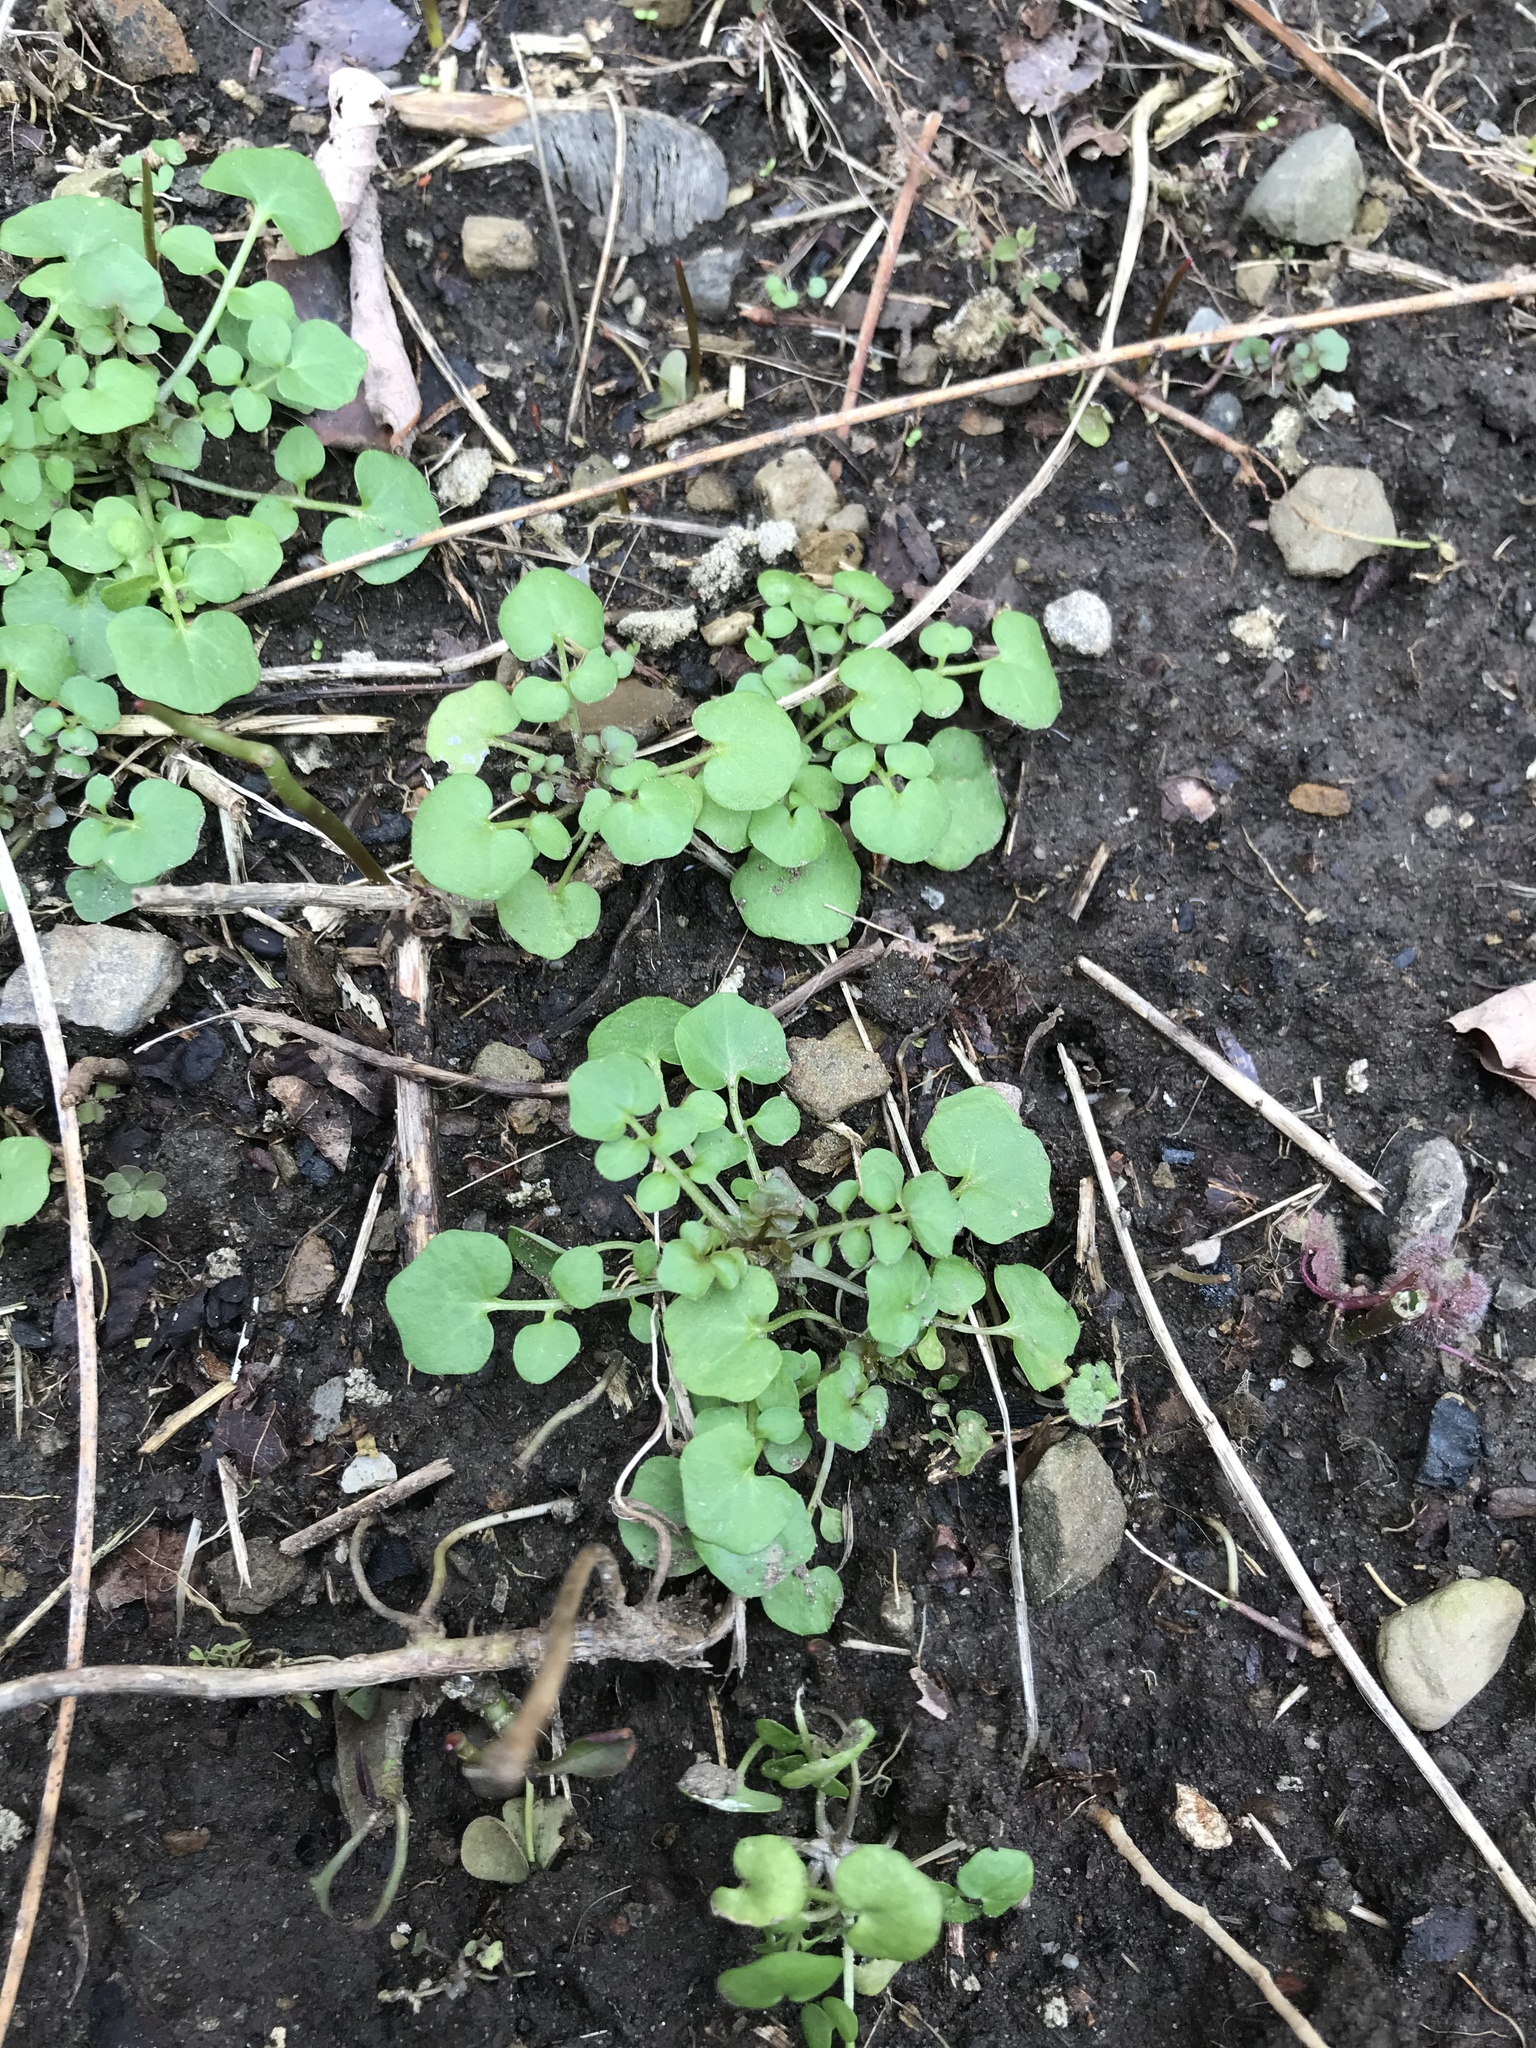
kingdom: Plantae
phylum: Tracheophyta
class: Magnoliopsida
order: Brassicales
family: Brassicaceae
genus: Cardamine
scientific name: Cardamine hirsuta
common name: Hairy bittercress
